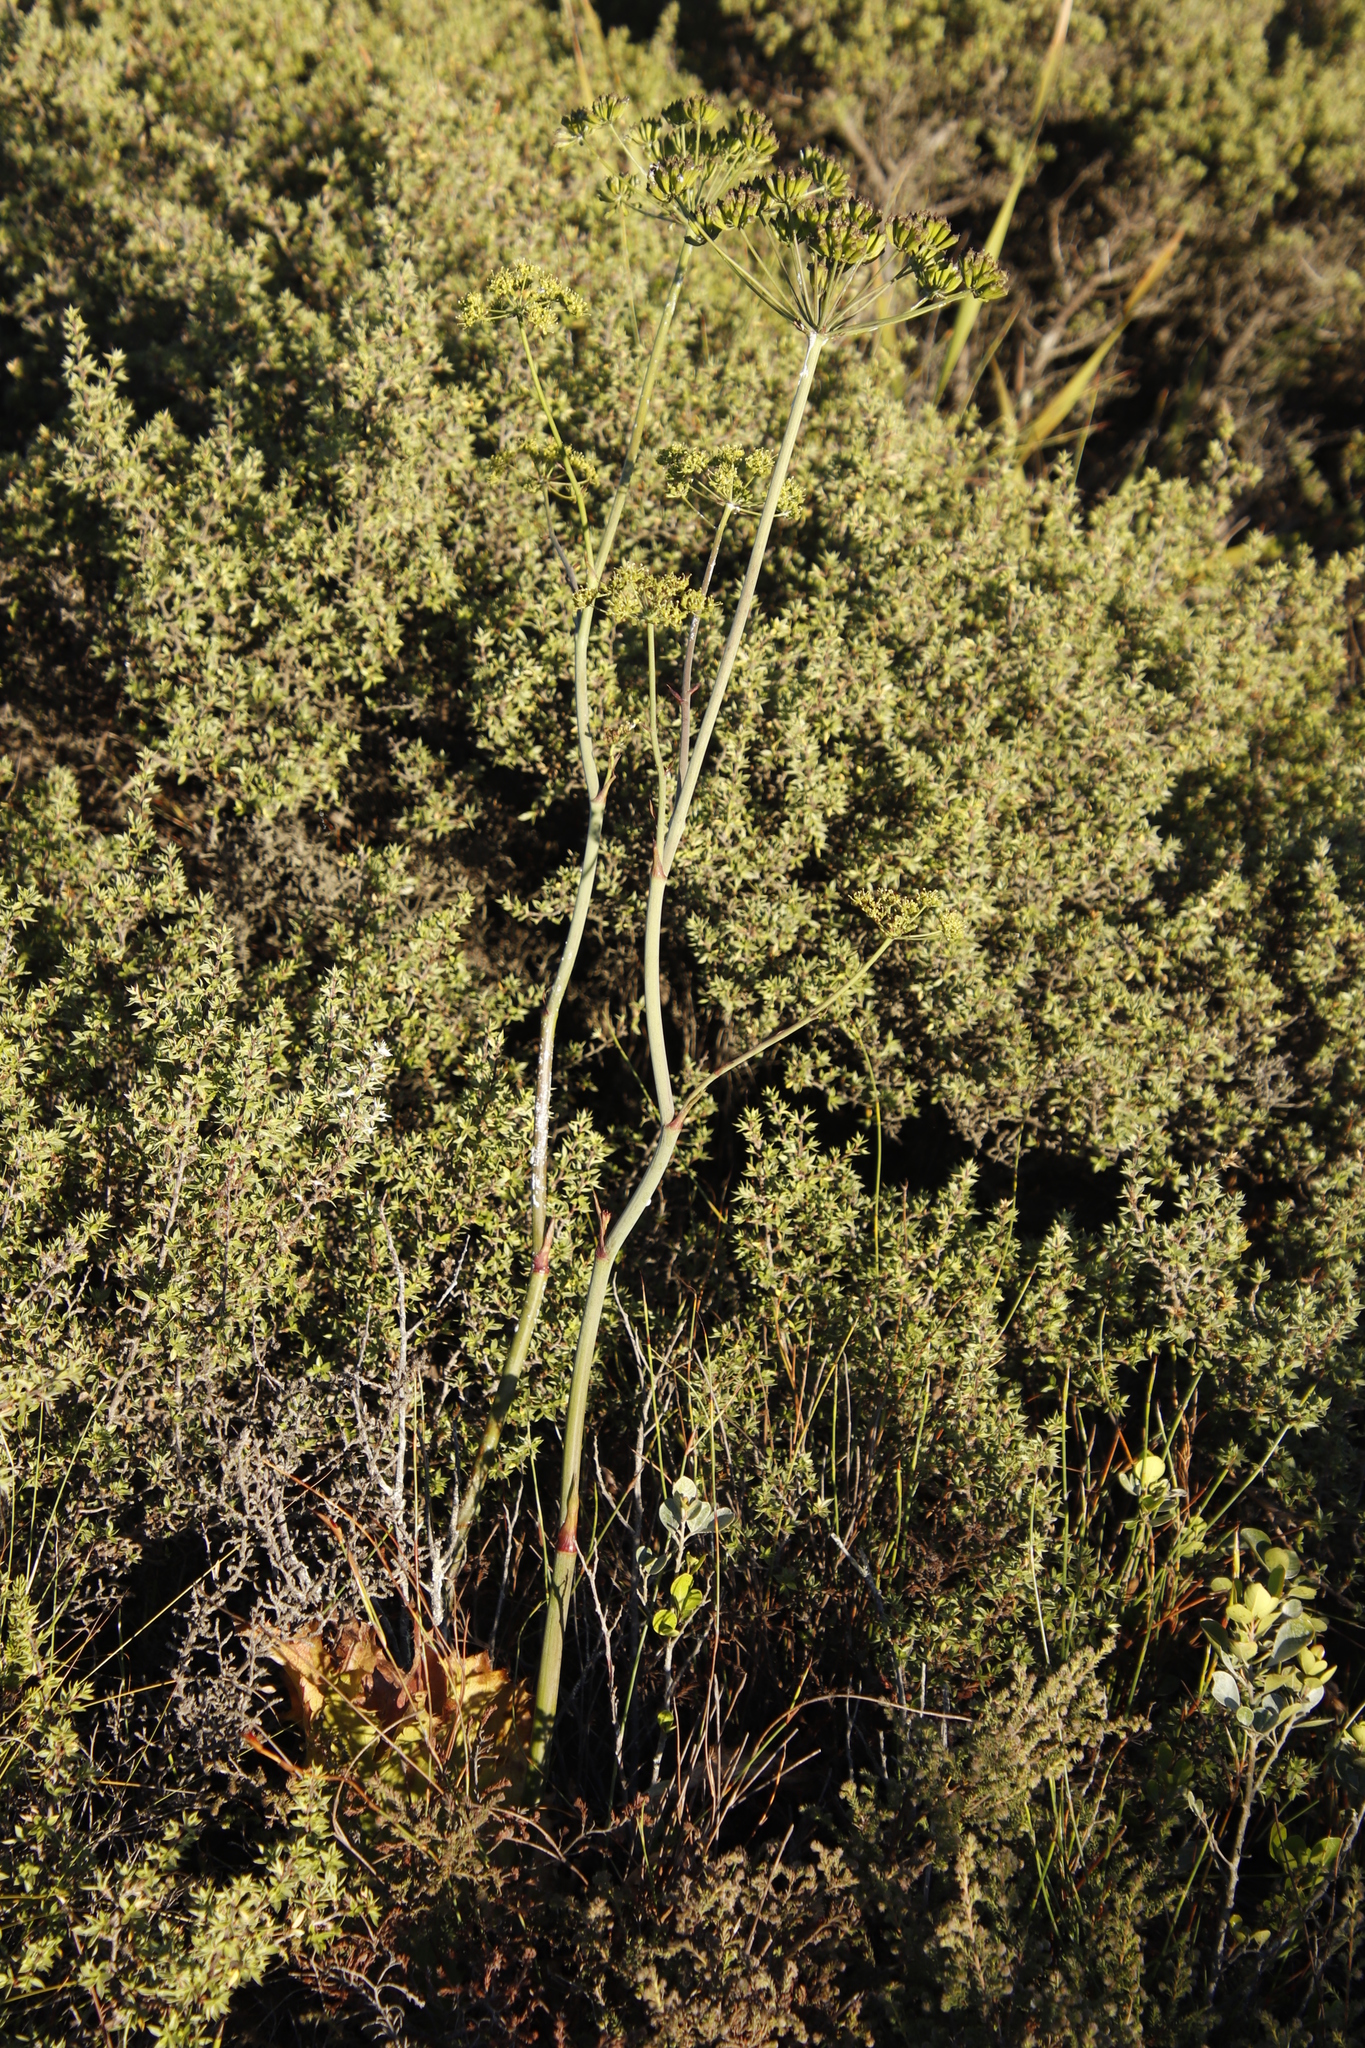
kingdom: Plantae
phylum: Tracheophyta
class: Magnoliopsida
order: Apiales
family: Apiaceae
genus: Lichtensteinia
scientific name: Lichtensteinia lacera
